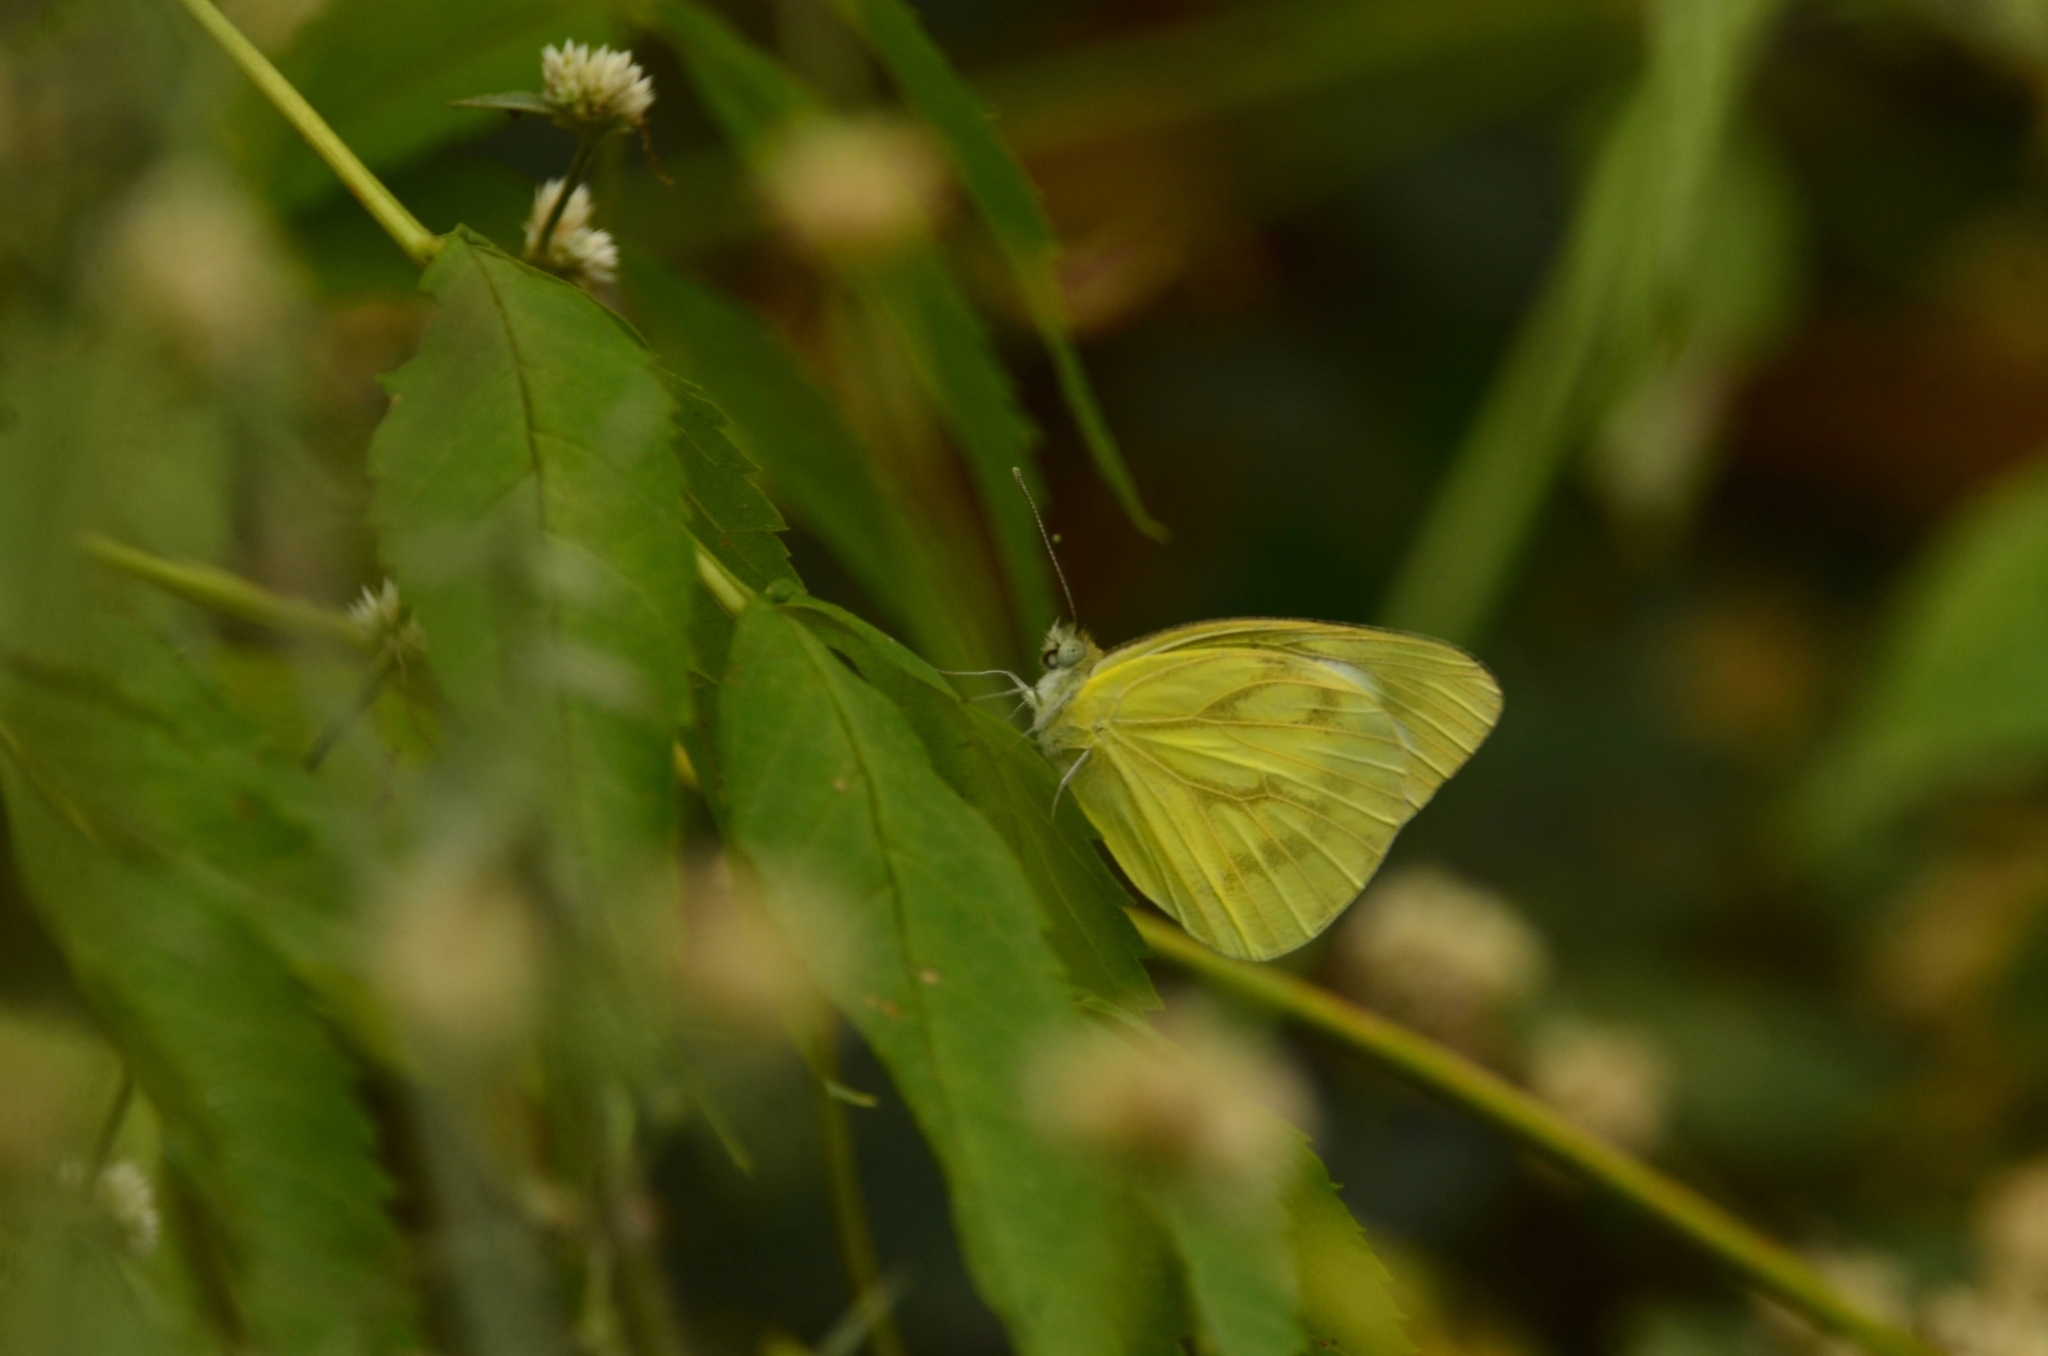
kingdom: Animalia
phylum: Arthropoda
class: Insecta
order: Lepidoptera
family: Pieridae
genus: Cepora
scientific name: Cepora nerissa
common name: Common gull
